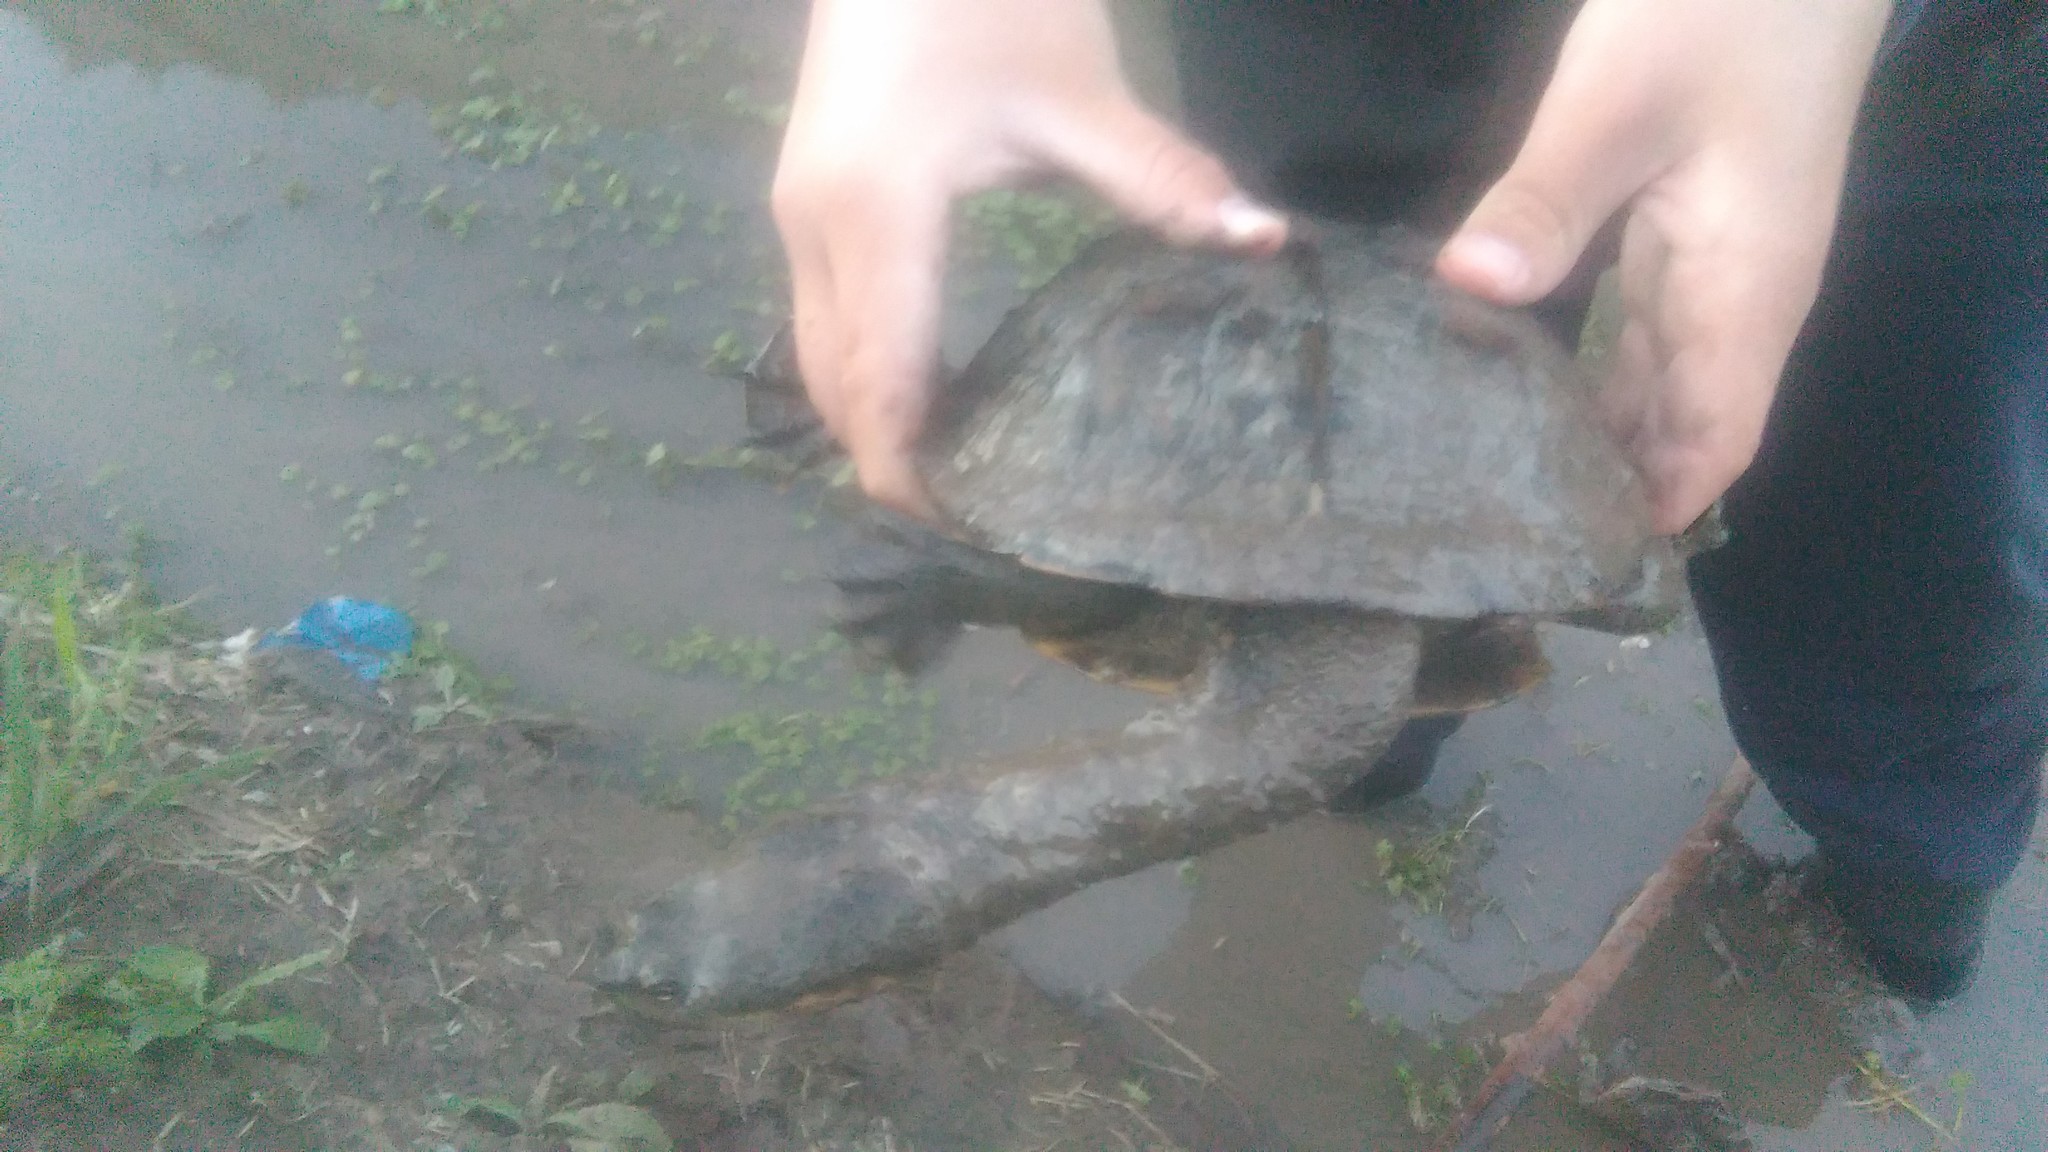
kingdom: Animalia
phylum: Chordata
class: Testudines
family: Chelidae
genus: Hydromedusa
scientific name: Hydromedusa tectifera
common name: Argentine snake-necked turtle
